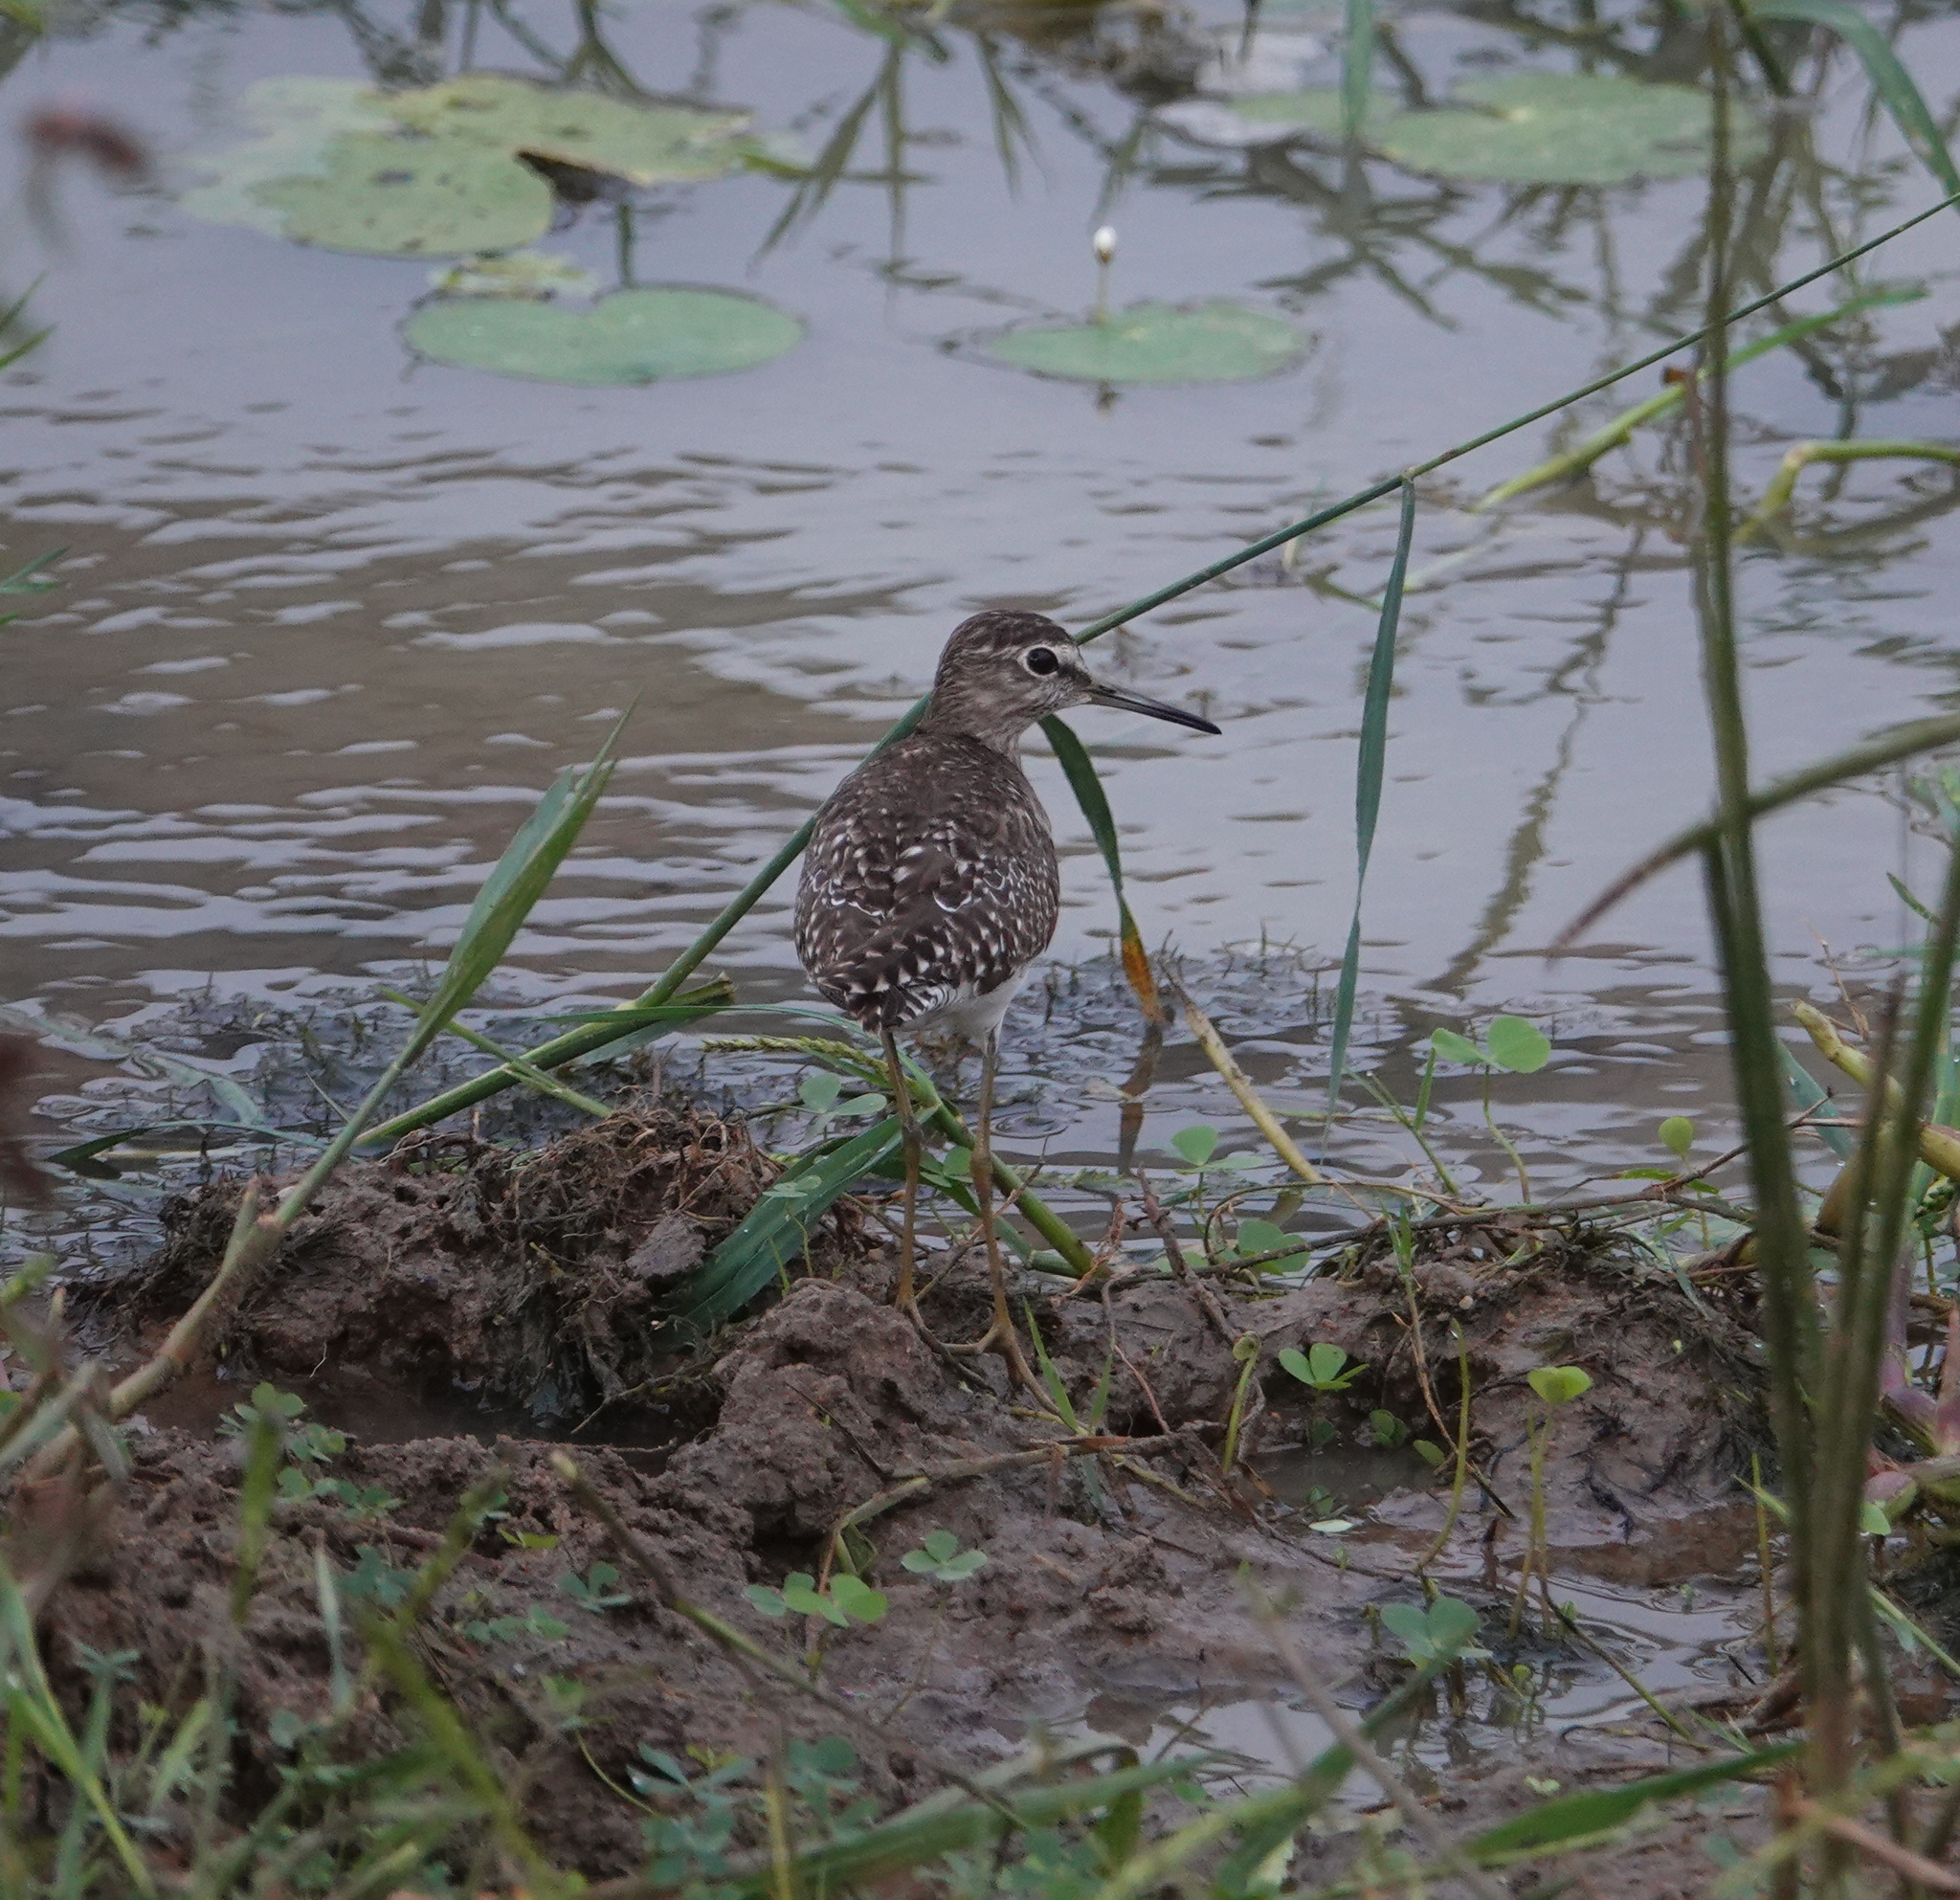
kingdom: Animalia
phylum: Chordata
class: Aves
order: Charadriiformes
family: Scolopacidae
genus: Tringa
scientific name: Tringa glareola
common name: Wood sandpiper
